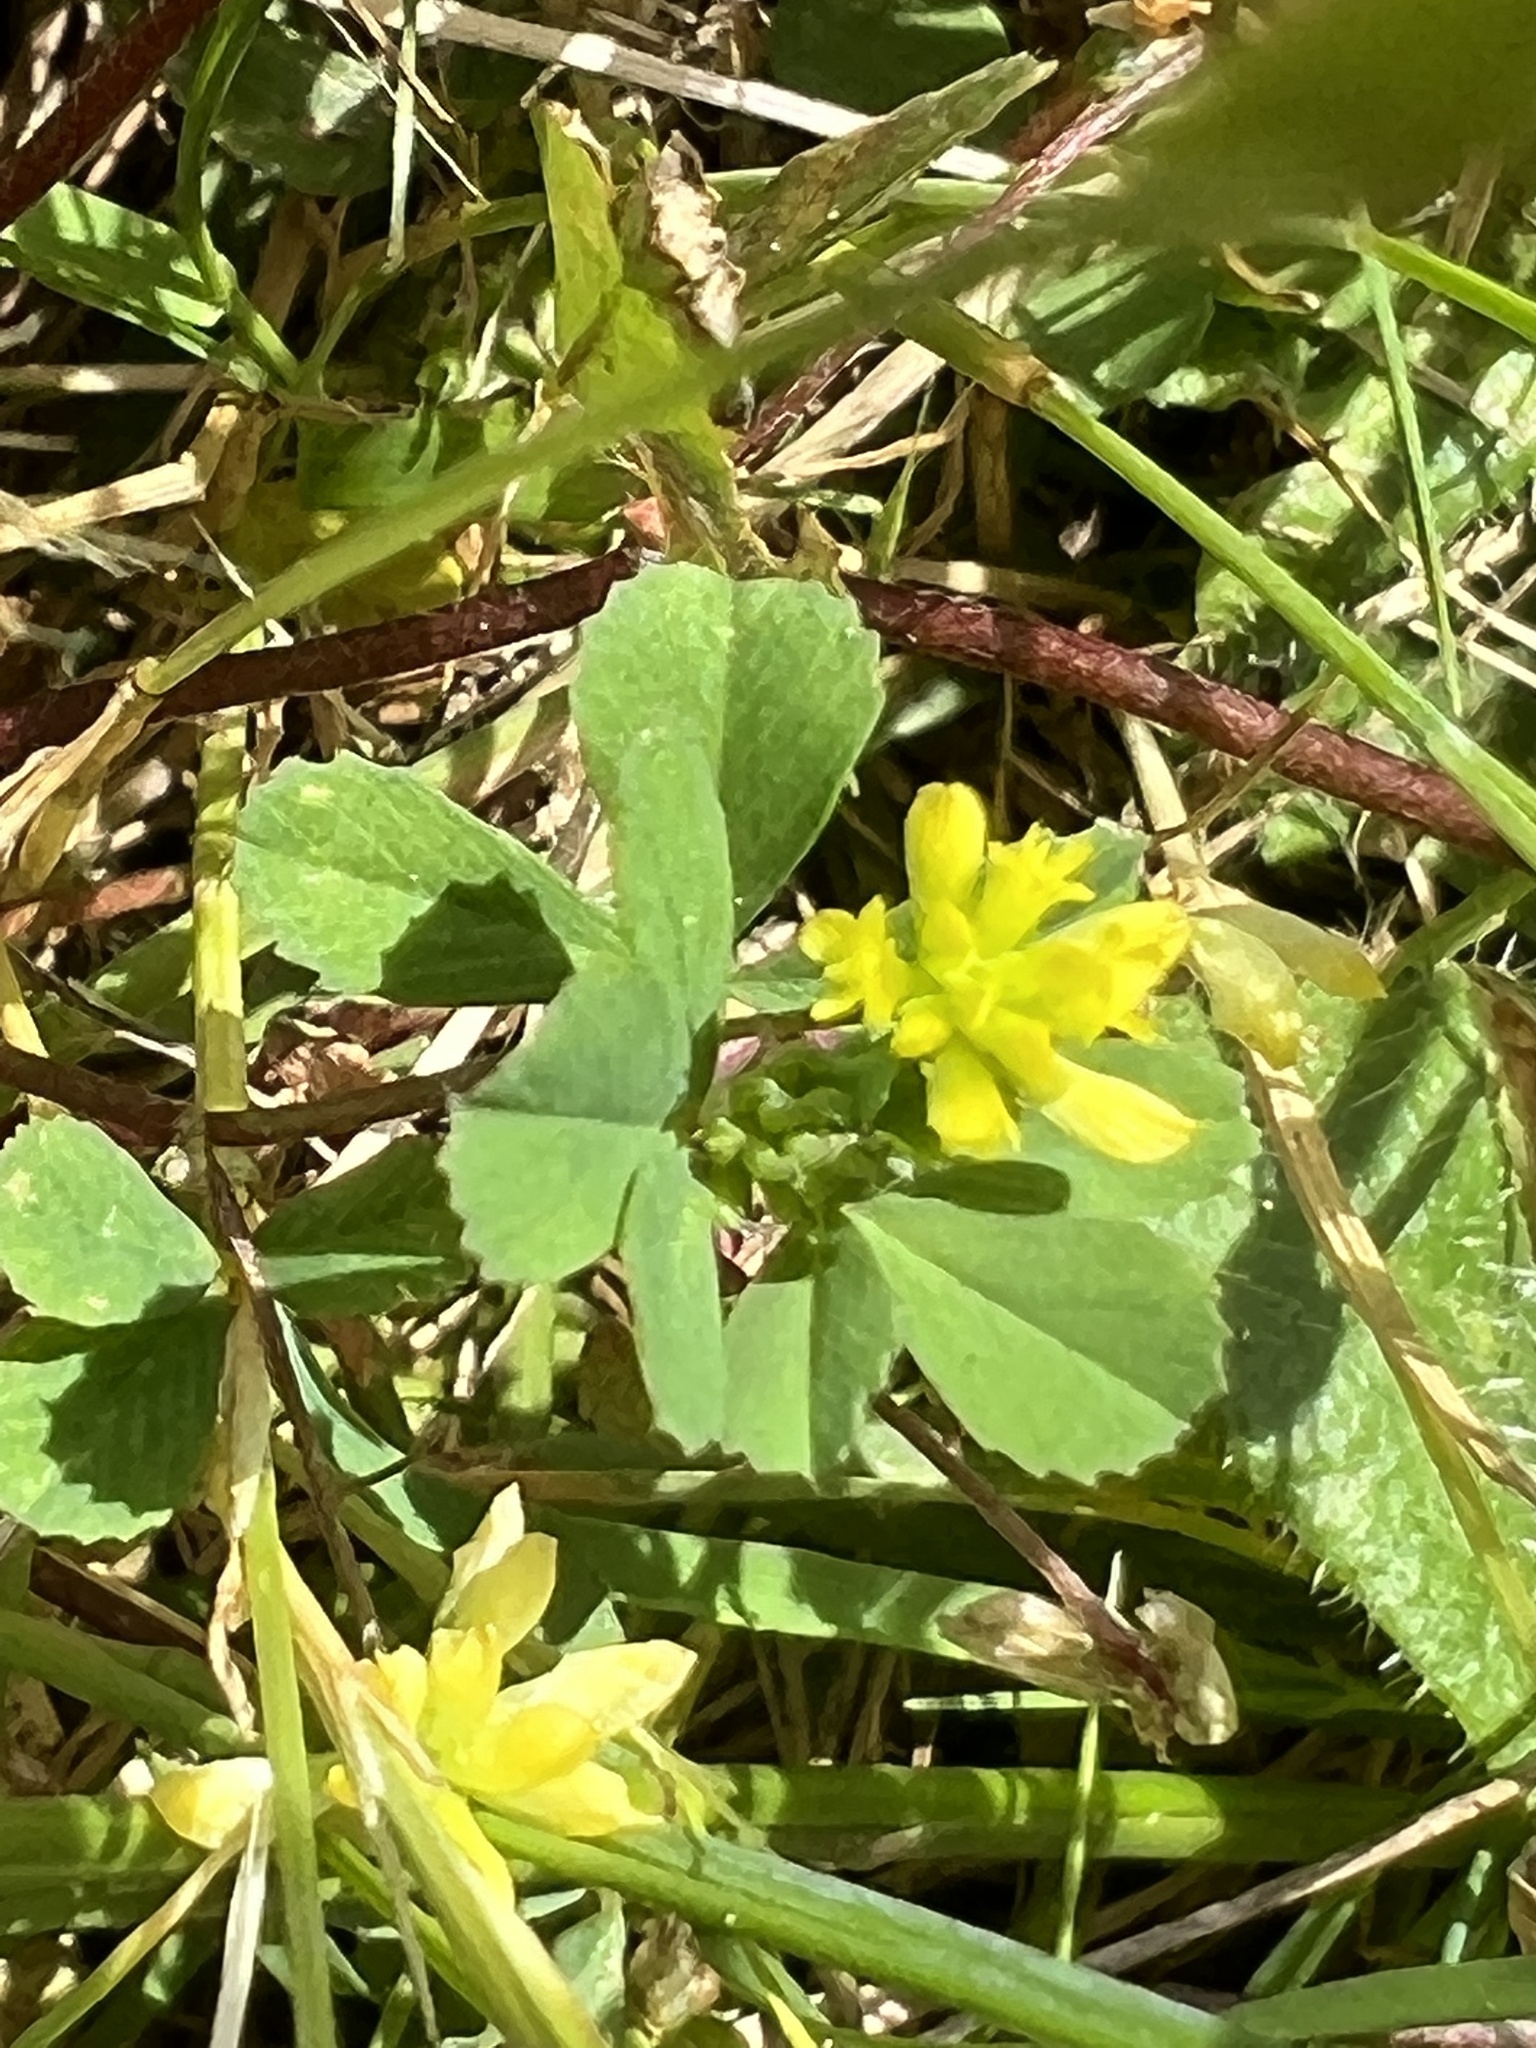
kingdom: Plantae
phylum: Tracheophyta
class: Magnoliopsida
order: Fabales
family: Fabaceae
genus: Trifolium
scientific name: Trifolium dubium
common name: Suckling clover
